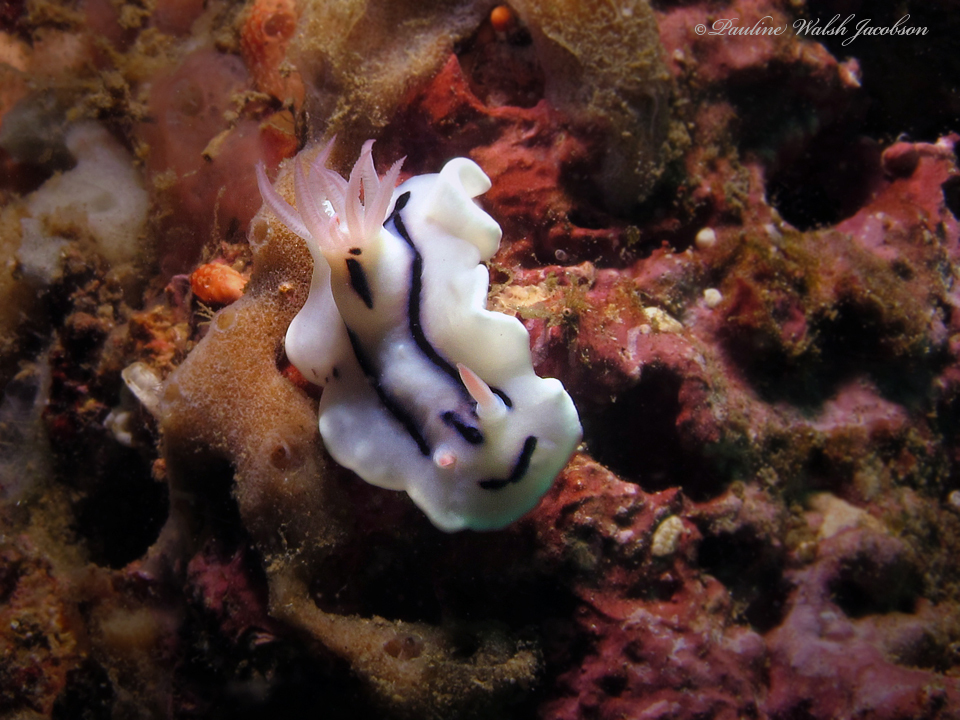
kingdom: Animalia
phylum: Mollusca
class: Gastropoda
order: Nudibranchia
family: Chromodorididae
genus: Chromodoris
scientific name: Chromodoris lochi
